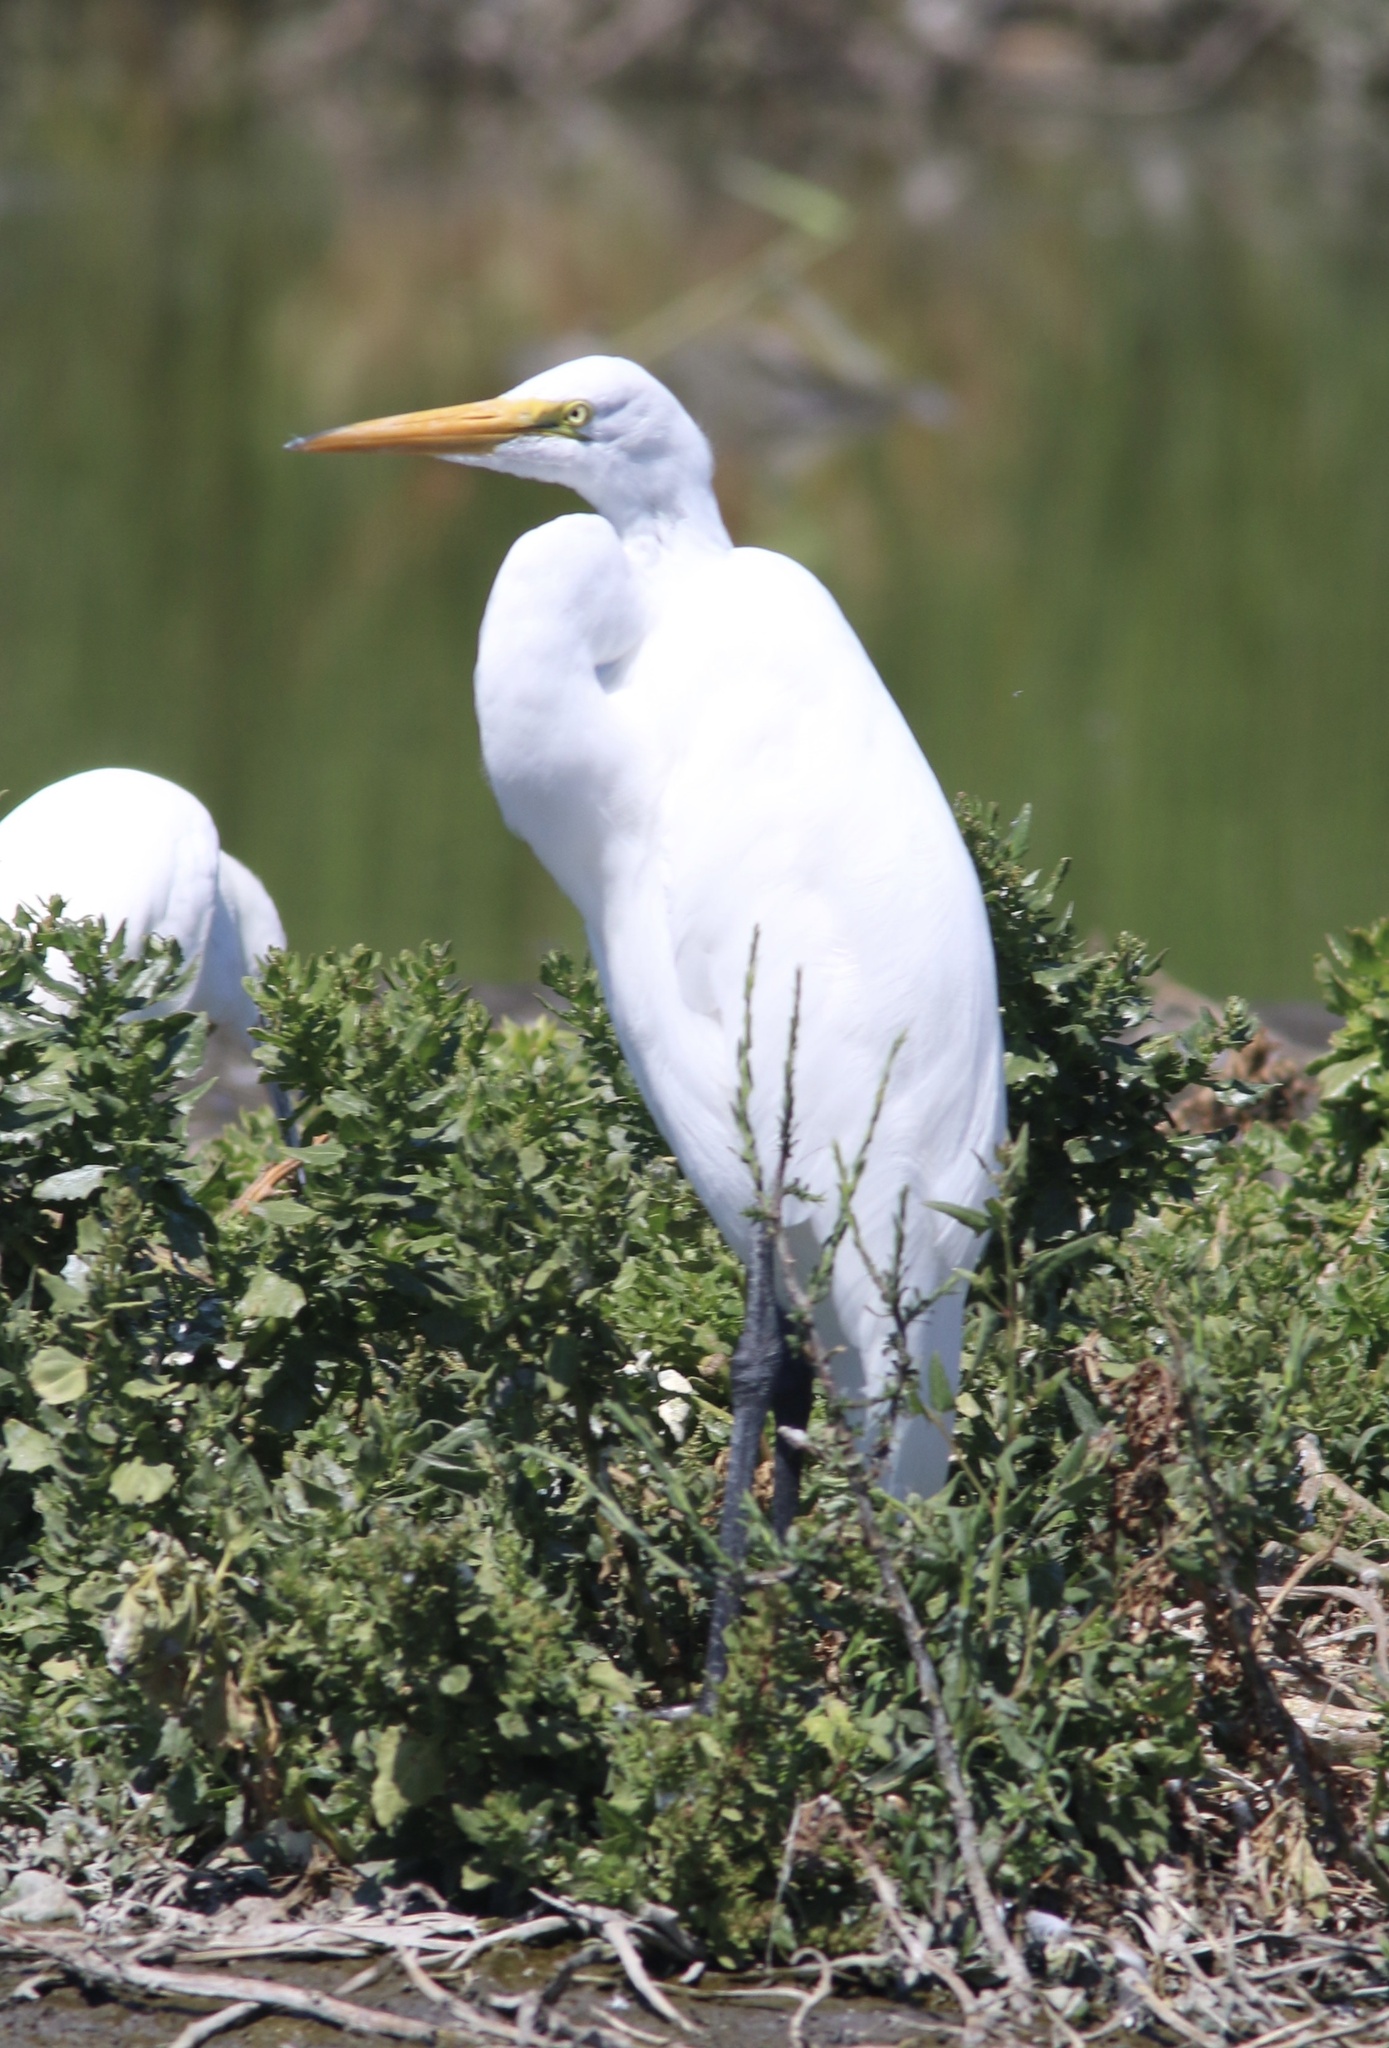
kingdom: Animalia
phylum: Chordata
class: Aves
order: Pelecaniformes
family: Ardeidae
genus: Ardea
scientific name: Ardea alba
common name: Great egret
